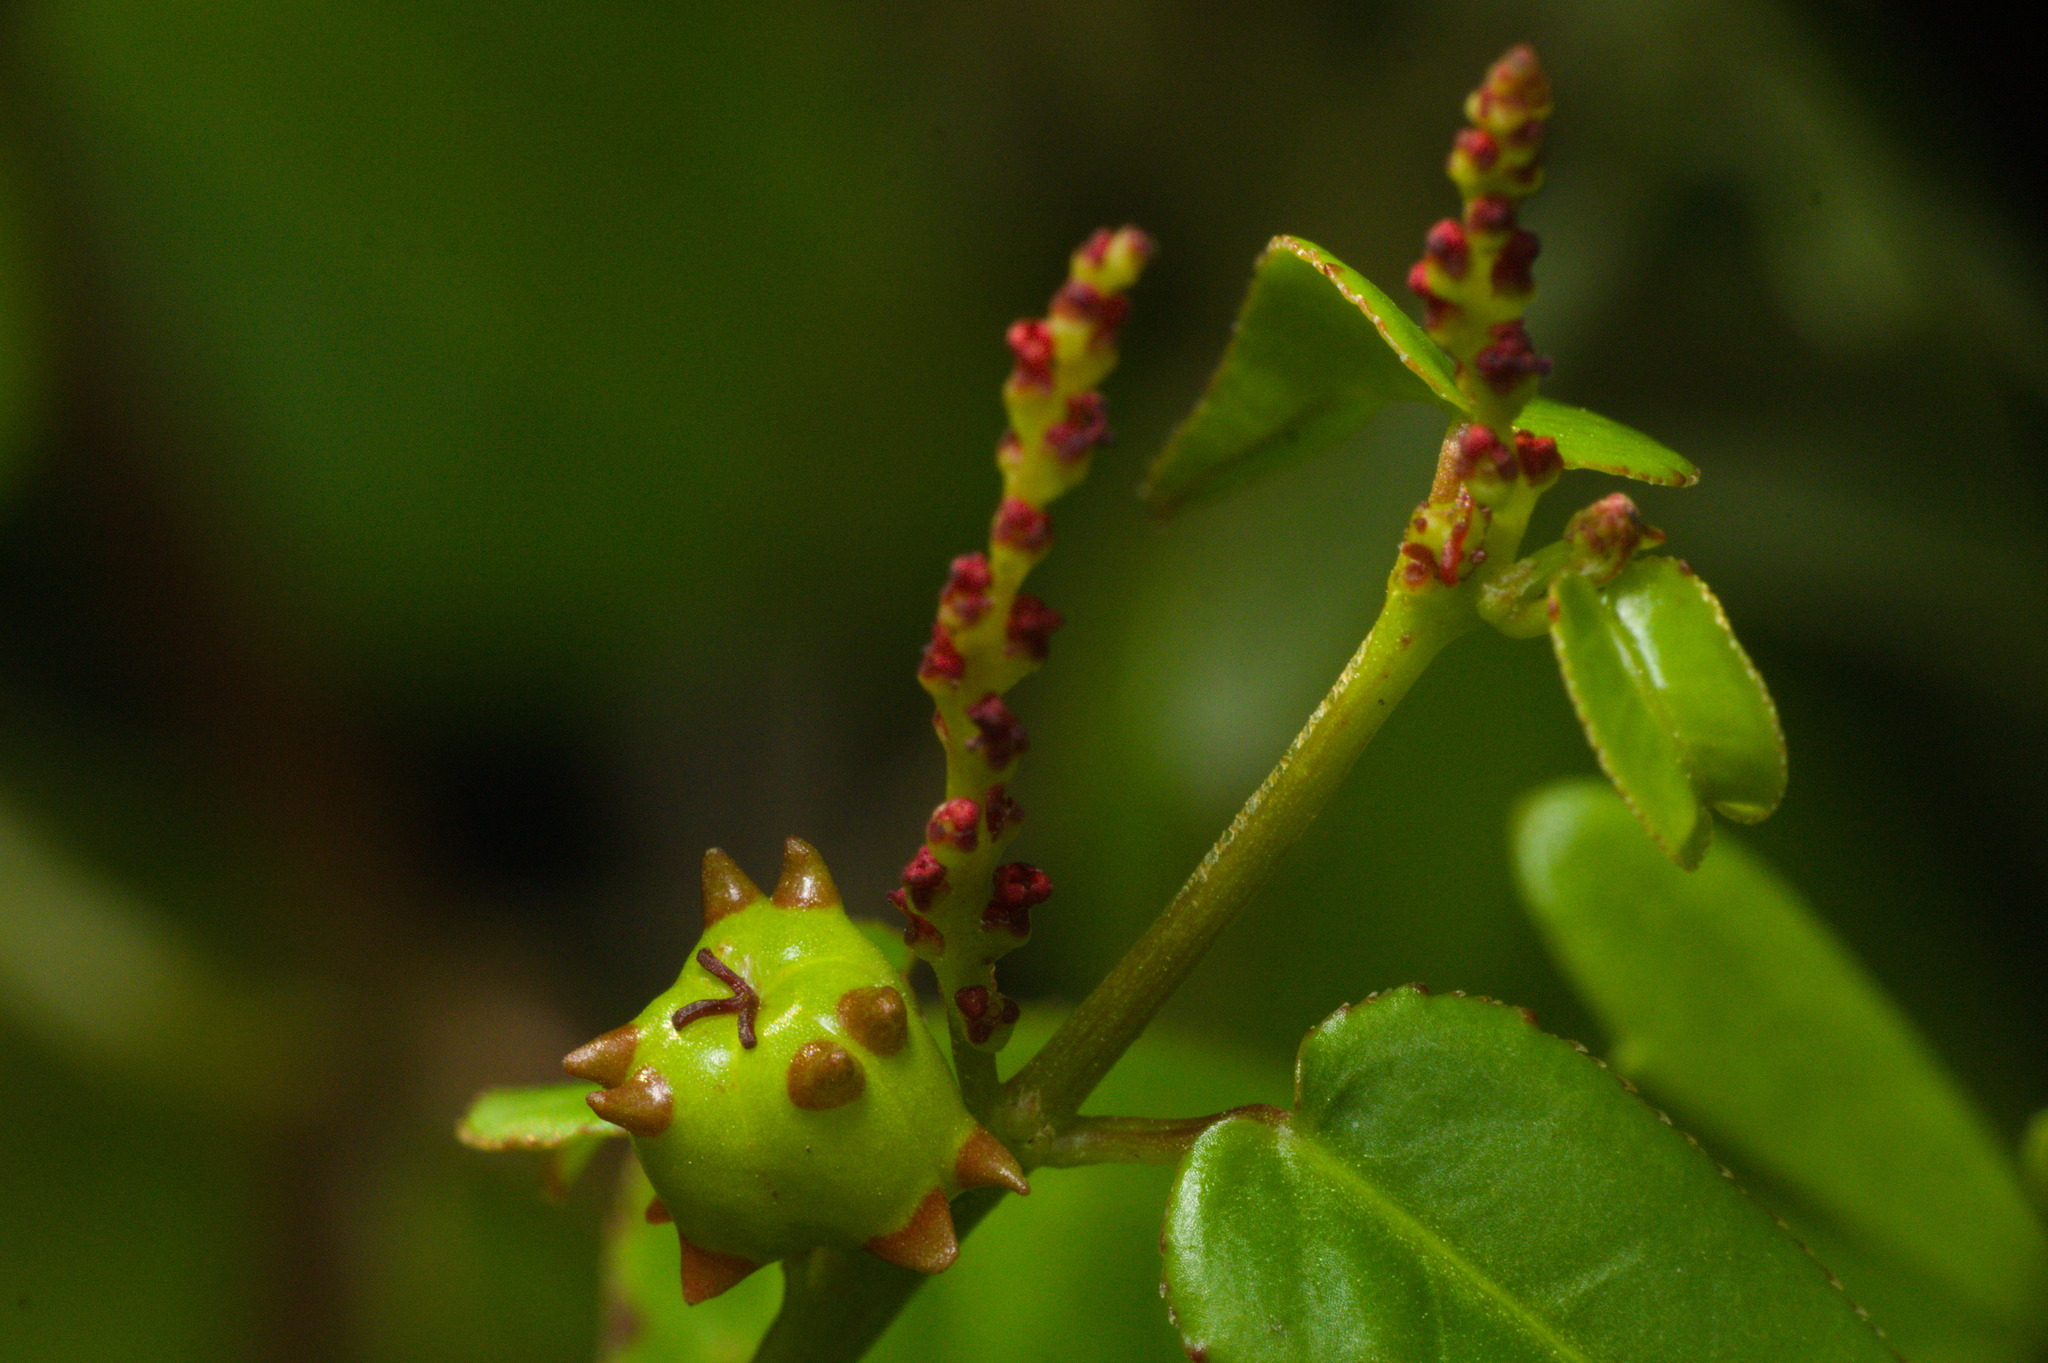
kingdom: Plantae
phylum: Tracheophyta
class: Magnoliopsida
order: Malpighiales
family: Euphorbiaceae
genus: Microstachys
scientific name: Microstachys corniculata
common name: Hato tejas
